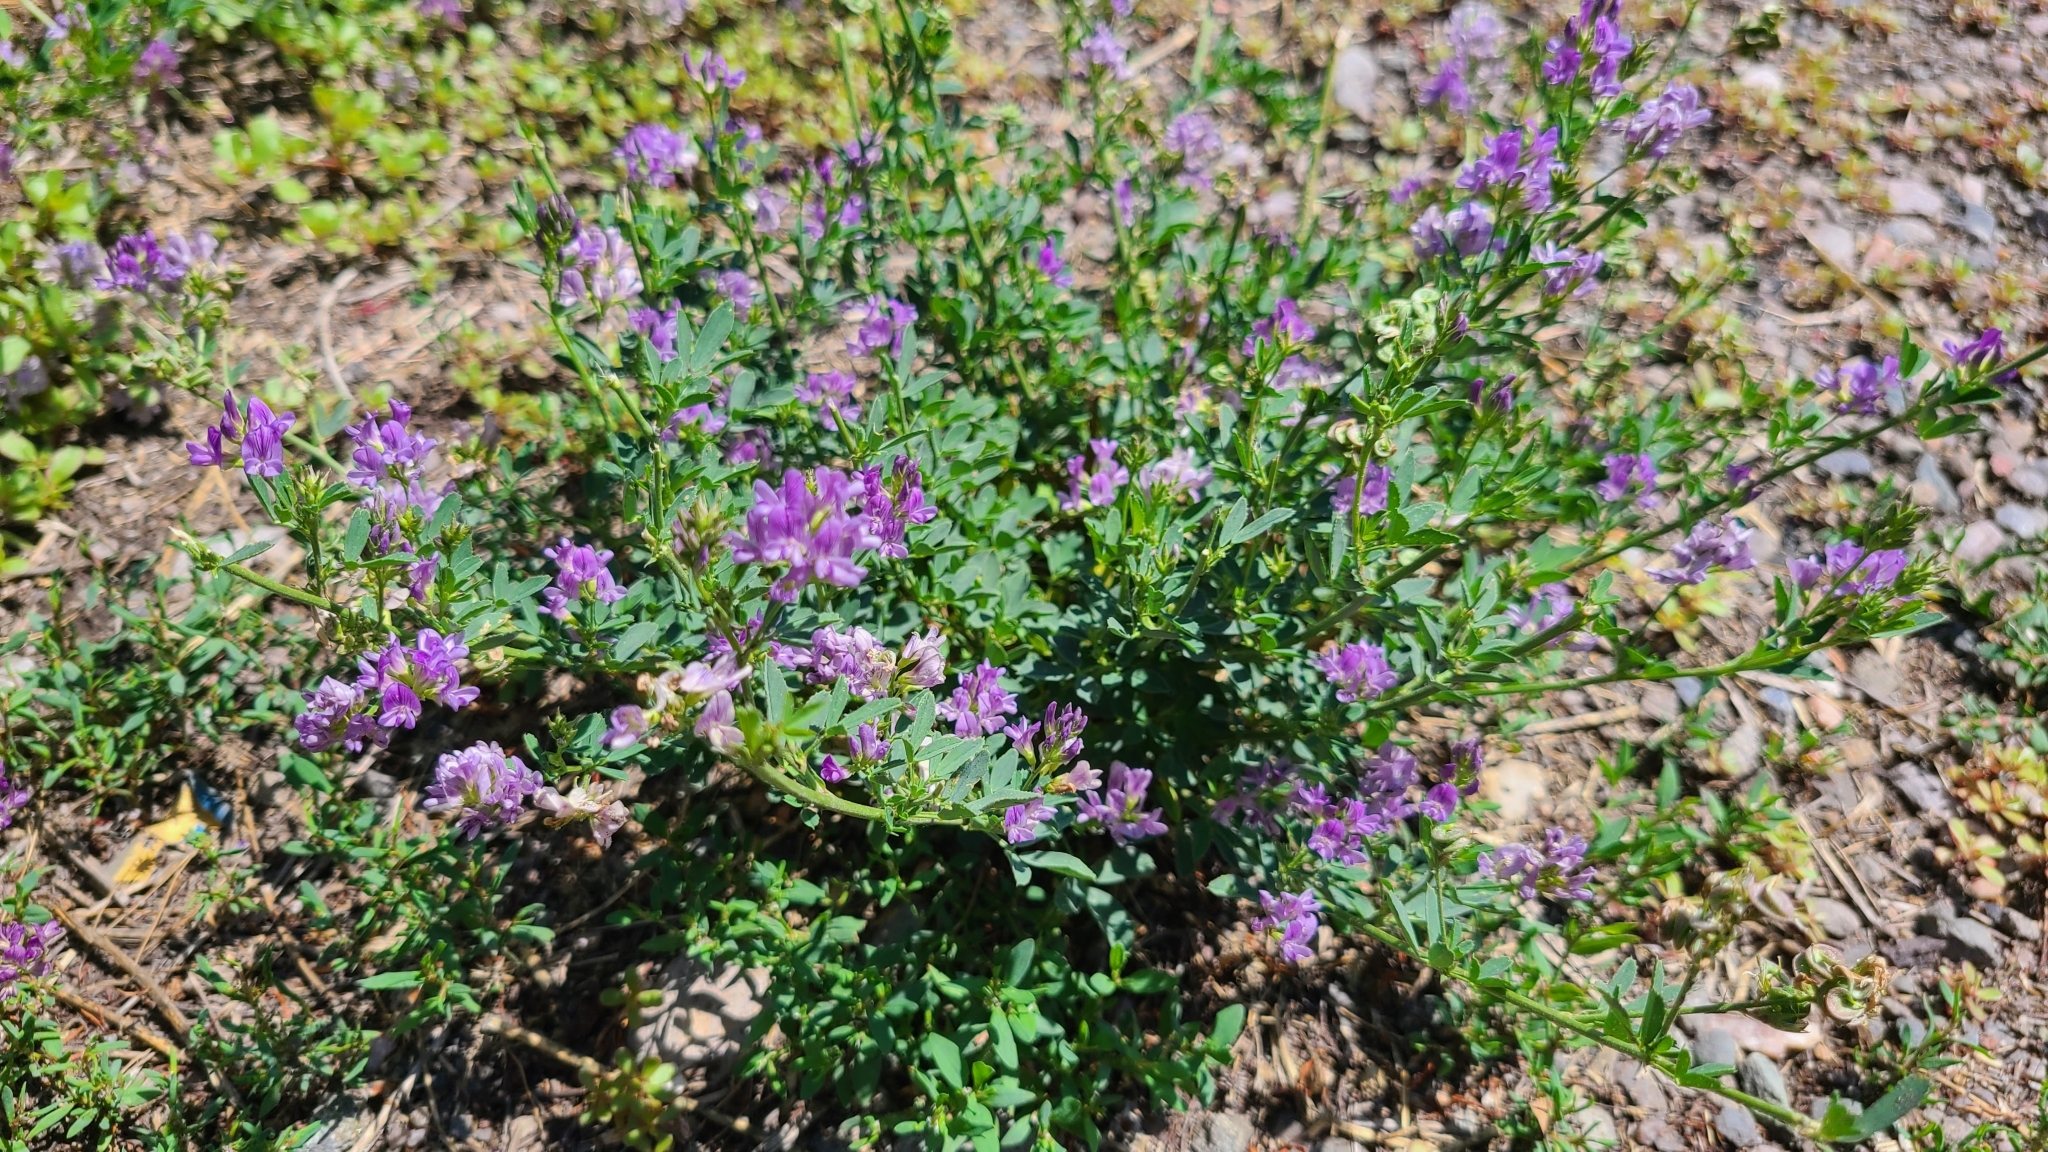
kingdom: Plantae
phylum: Tracheophyta
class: Magnoliopsida
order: Fabales
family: Fabaceae
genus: Medicago
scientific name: Medicago sativa
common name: Alfalfa
